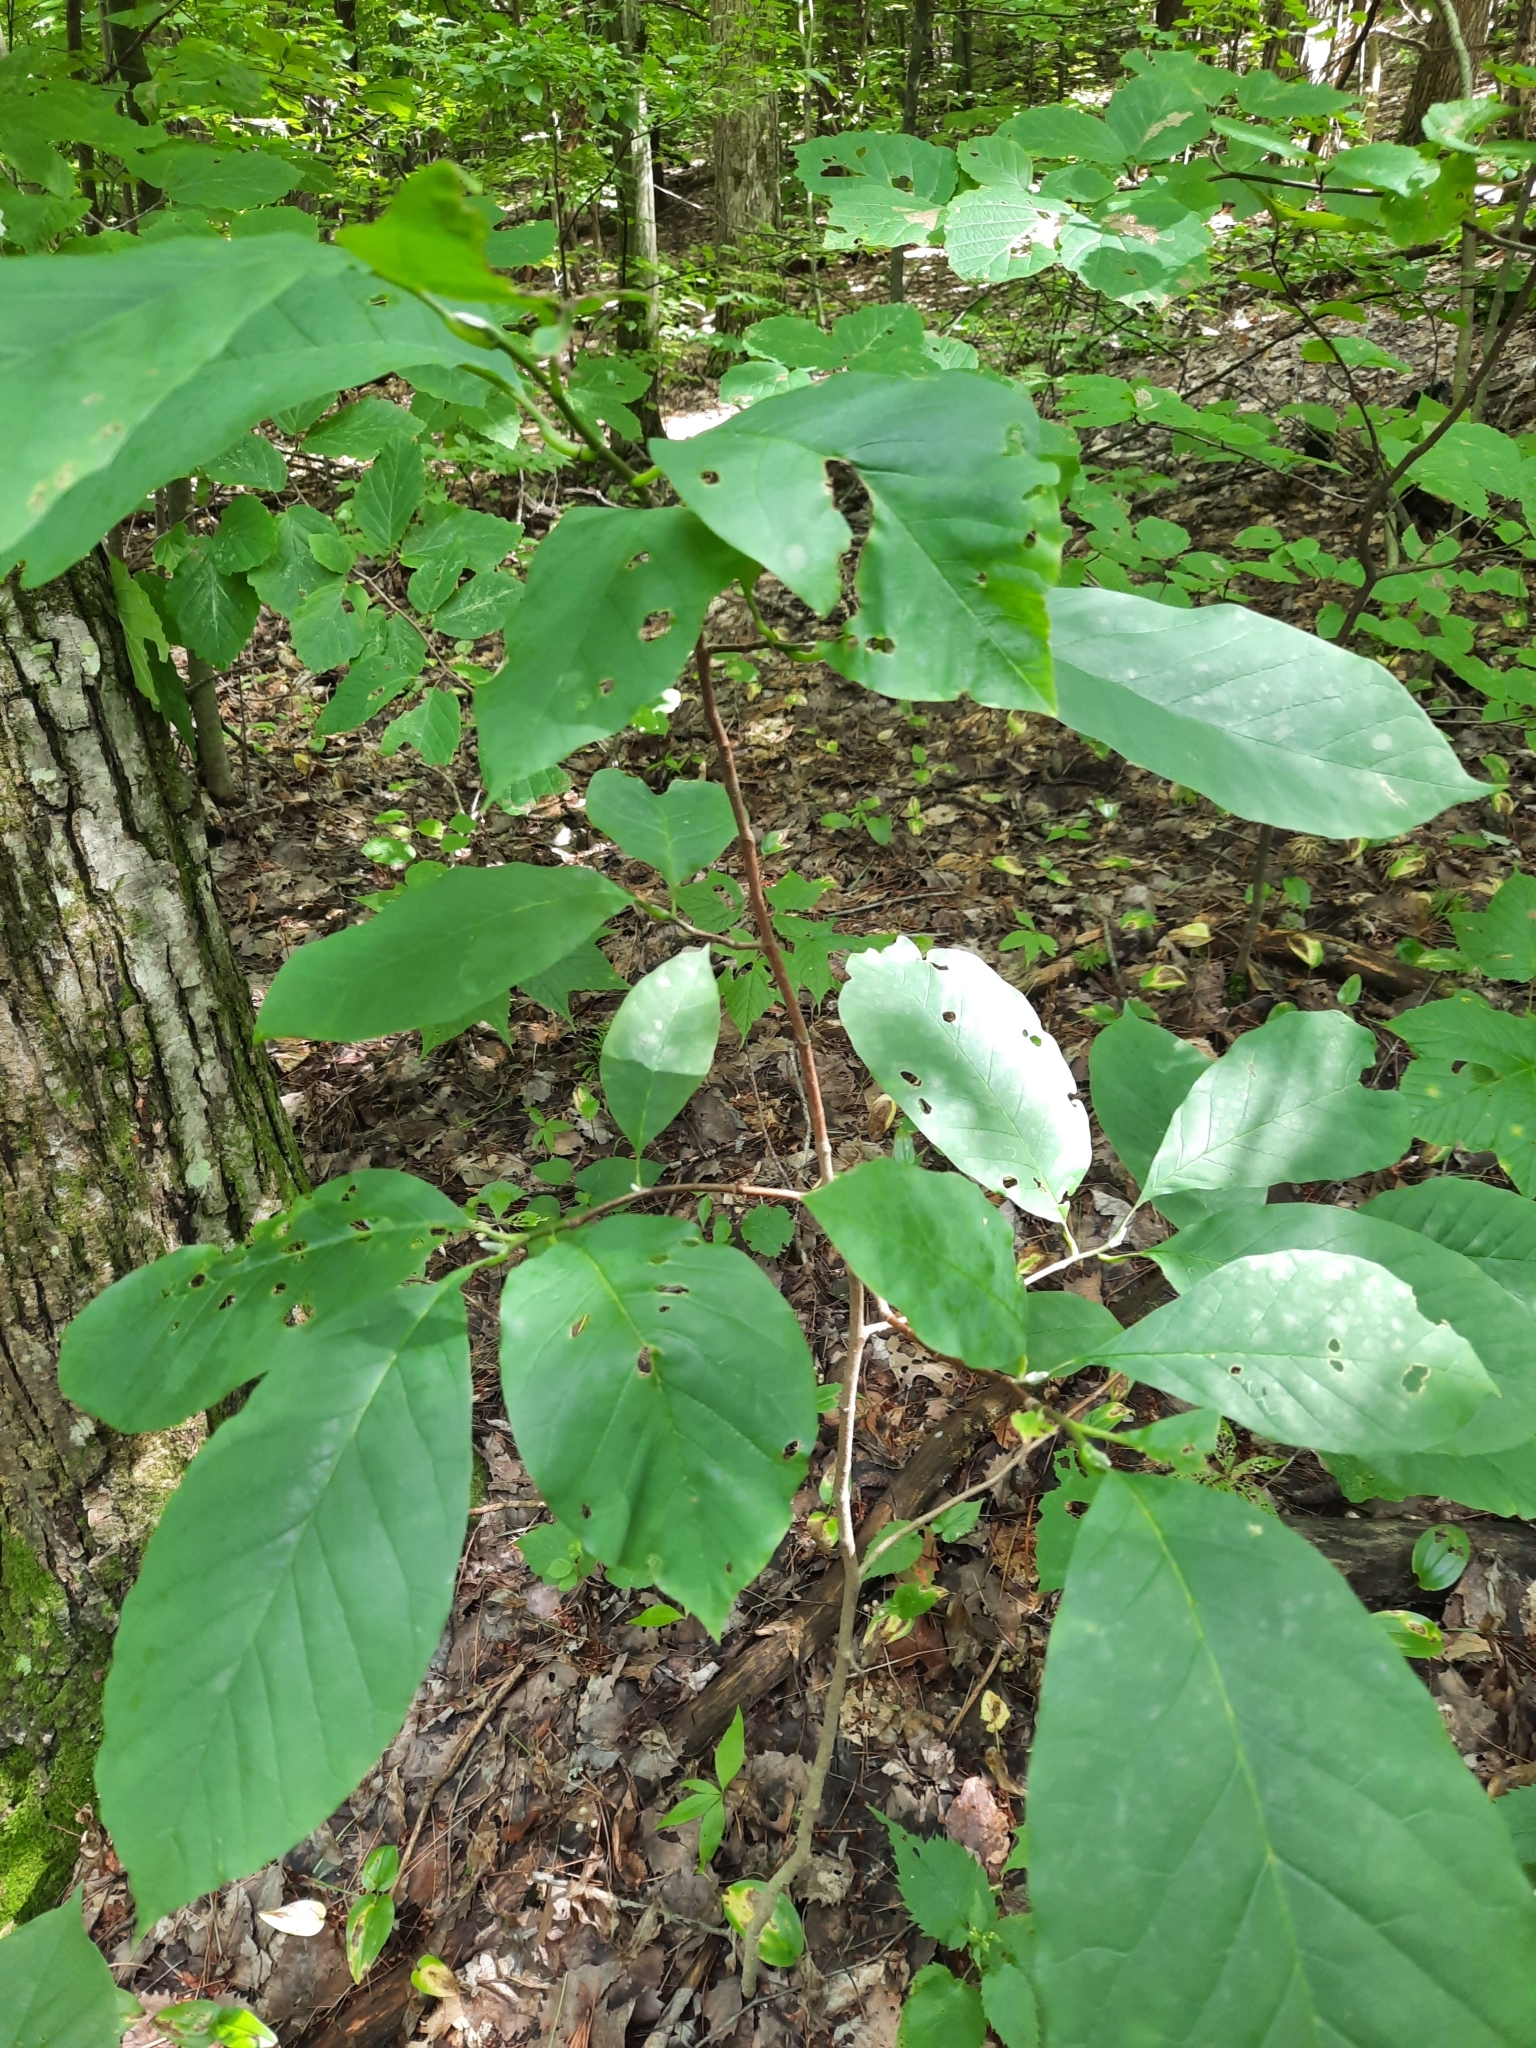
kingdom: Plantae
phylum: Tracheophyta
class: Magnoliopsida
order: Magnoliales
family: Magnoliaceae
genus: Magnolia
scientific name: Magnolia acuminata
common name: Cucumber magnolia
